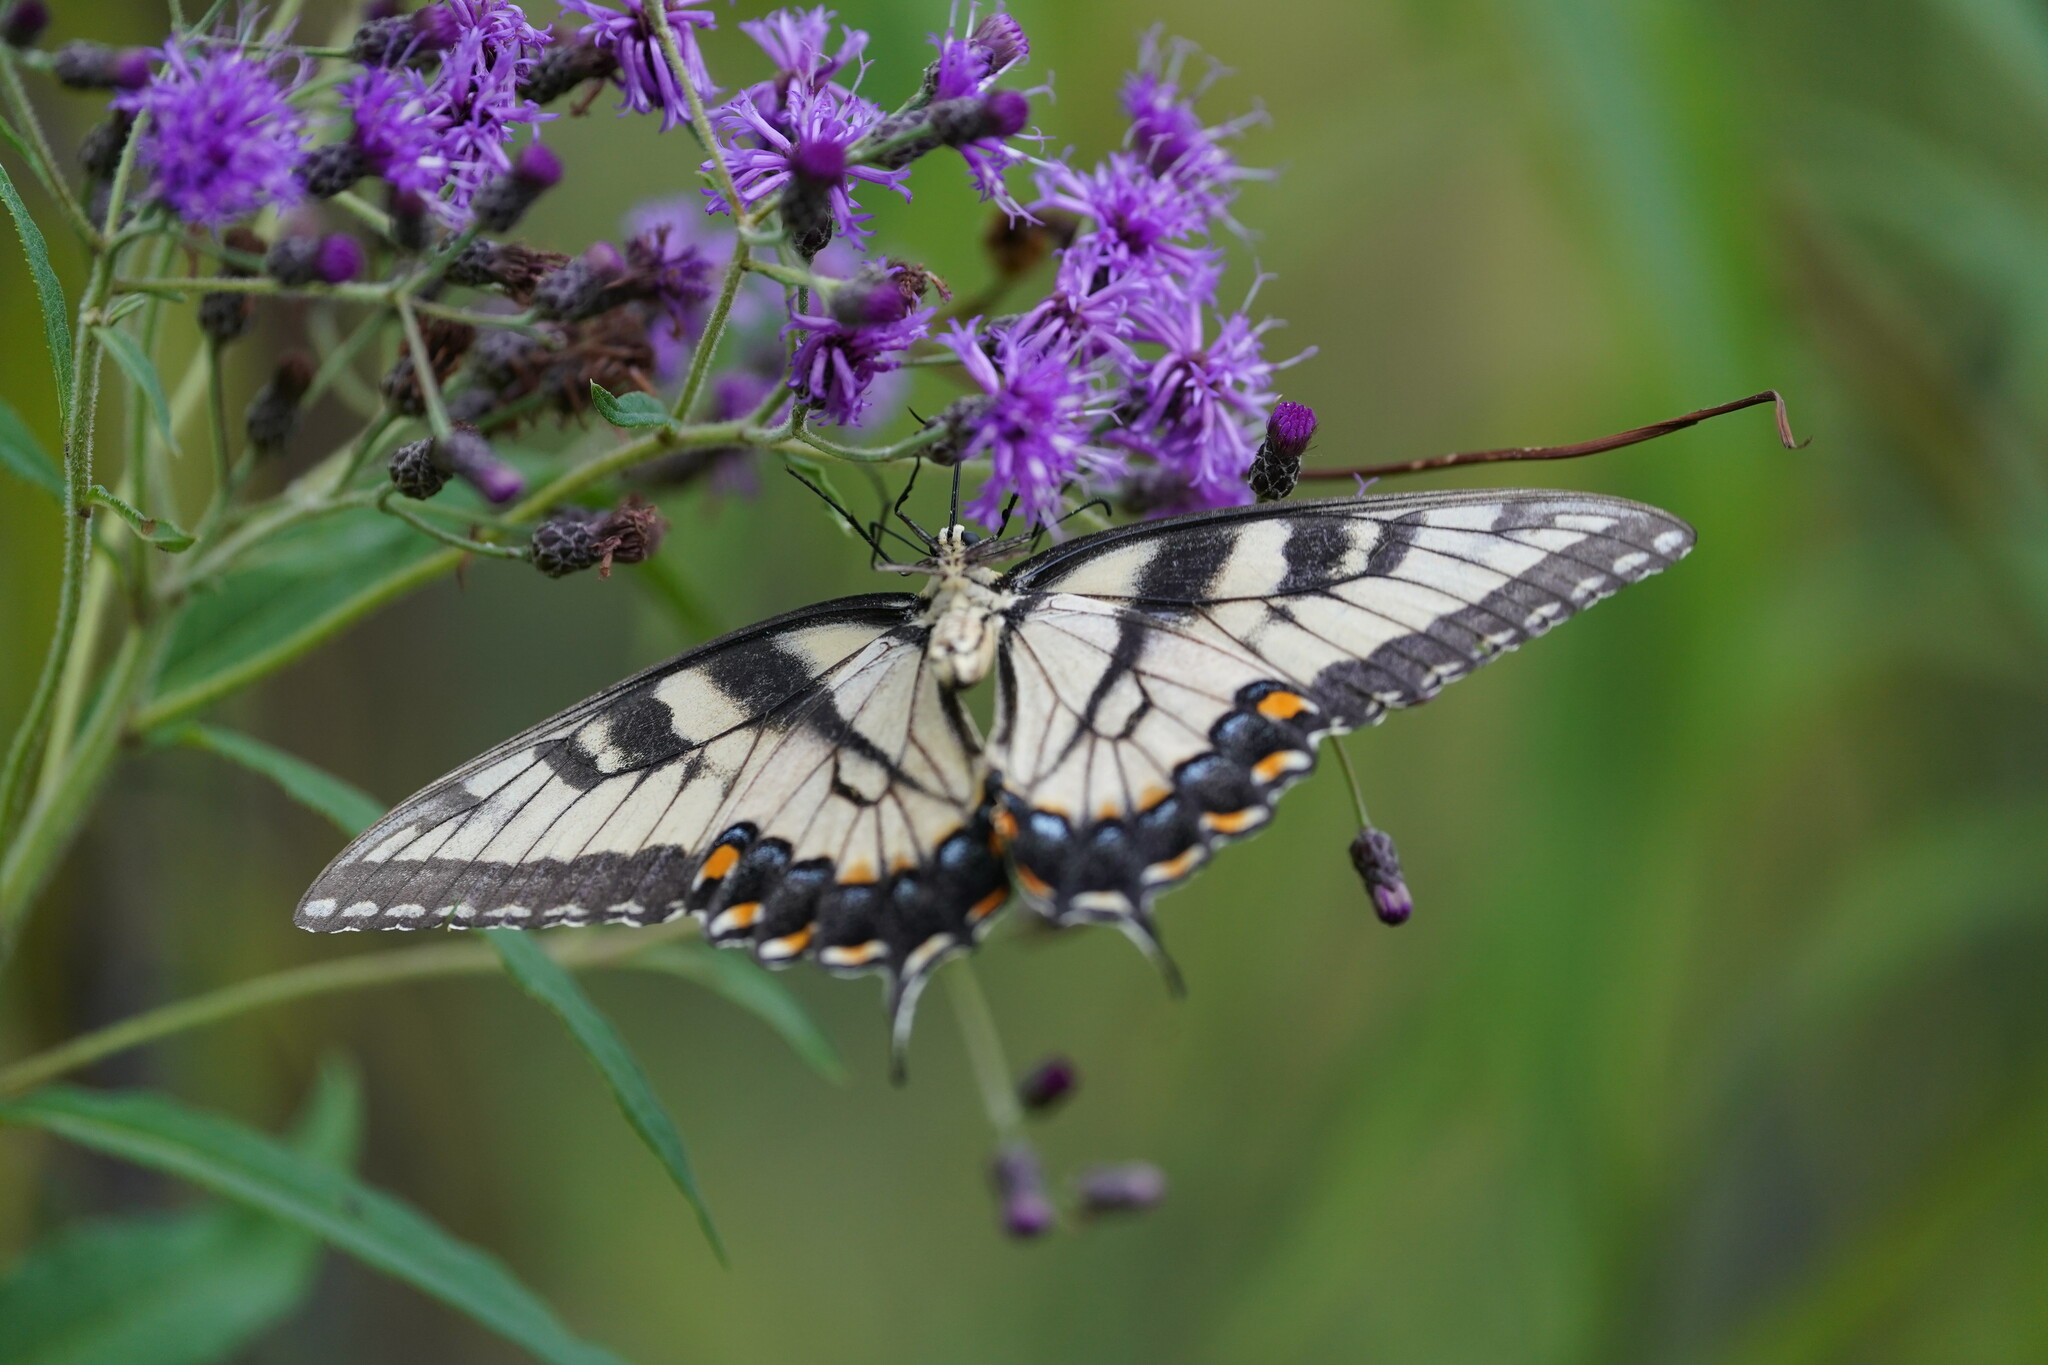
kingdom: Animalia
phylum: Arthropoda
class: Insecta
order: Lepidoptera
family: Papilionidae
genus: Papilio
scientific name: Papilio glaucus
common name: Tiger swallowtail
